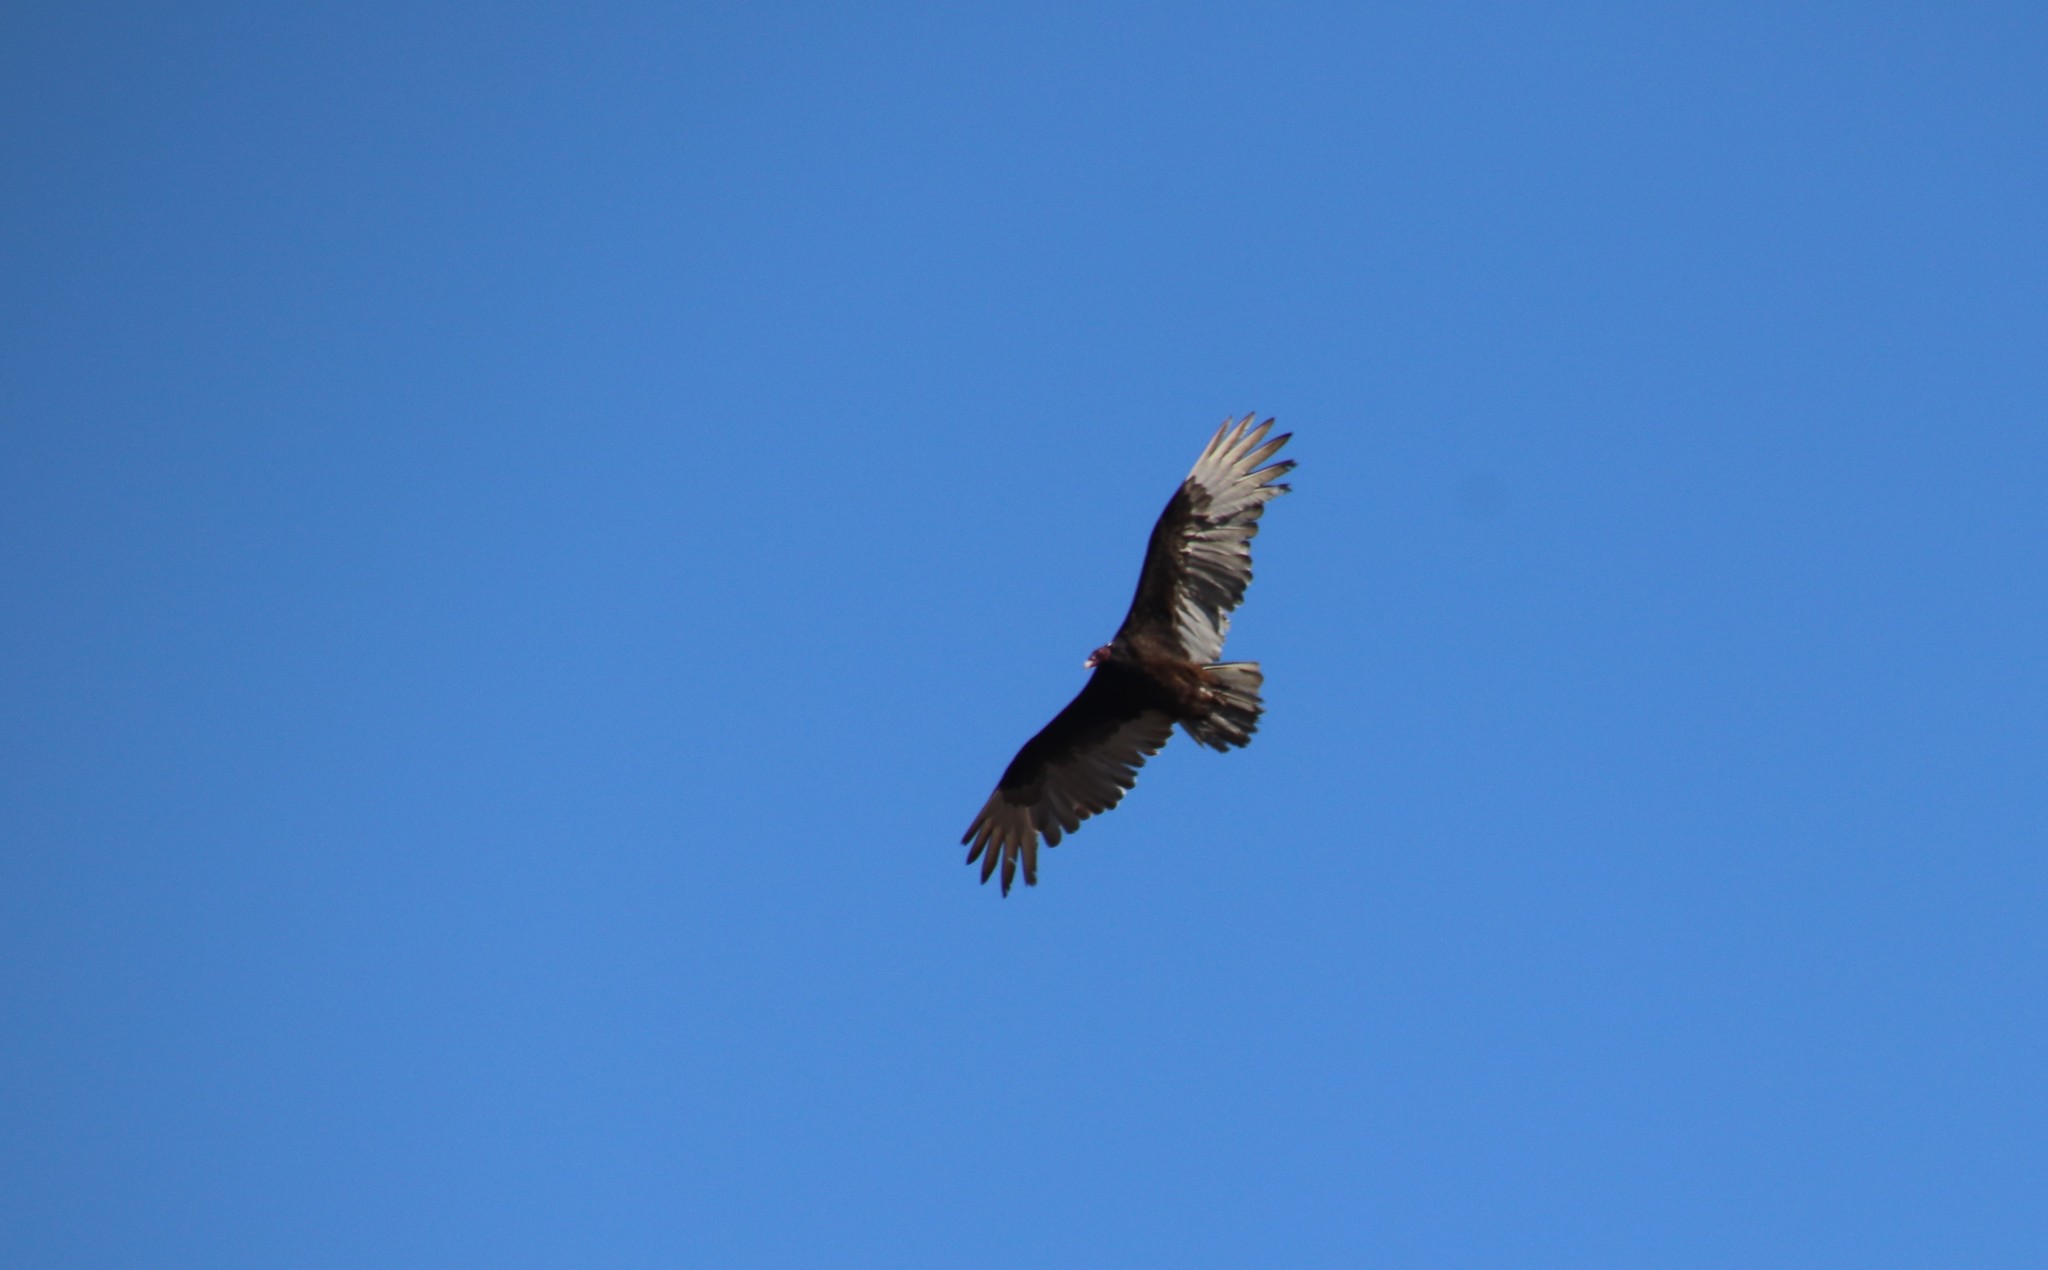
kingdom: Animalia
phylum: Chordata
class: Aves
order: Accipitriformes
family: Cathartidae
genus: Cathartes
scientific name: Cathartes aura
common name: Turkey vulture
